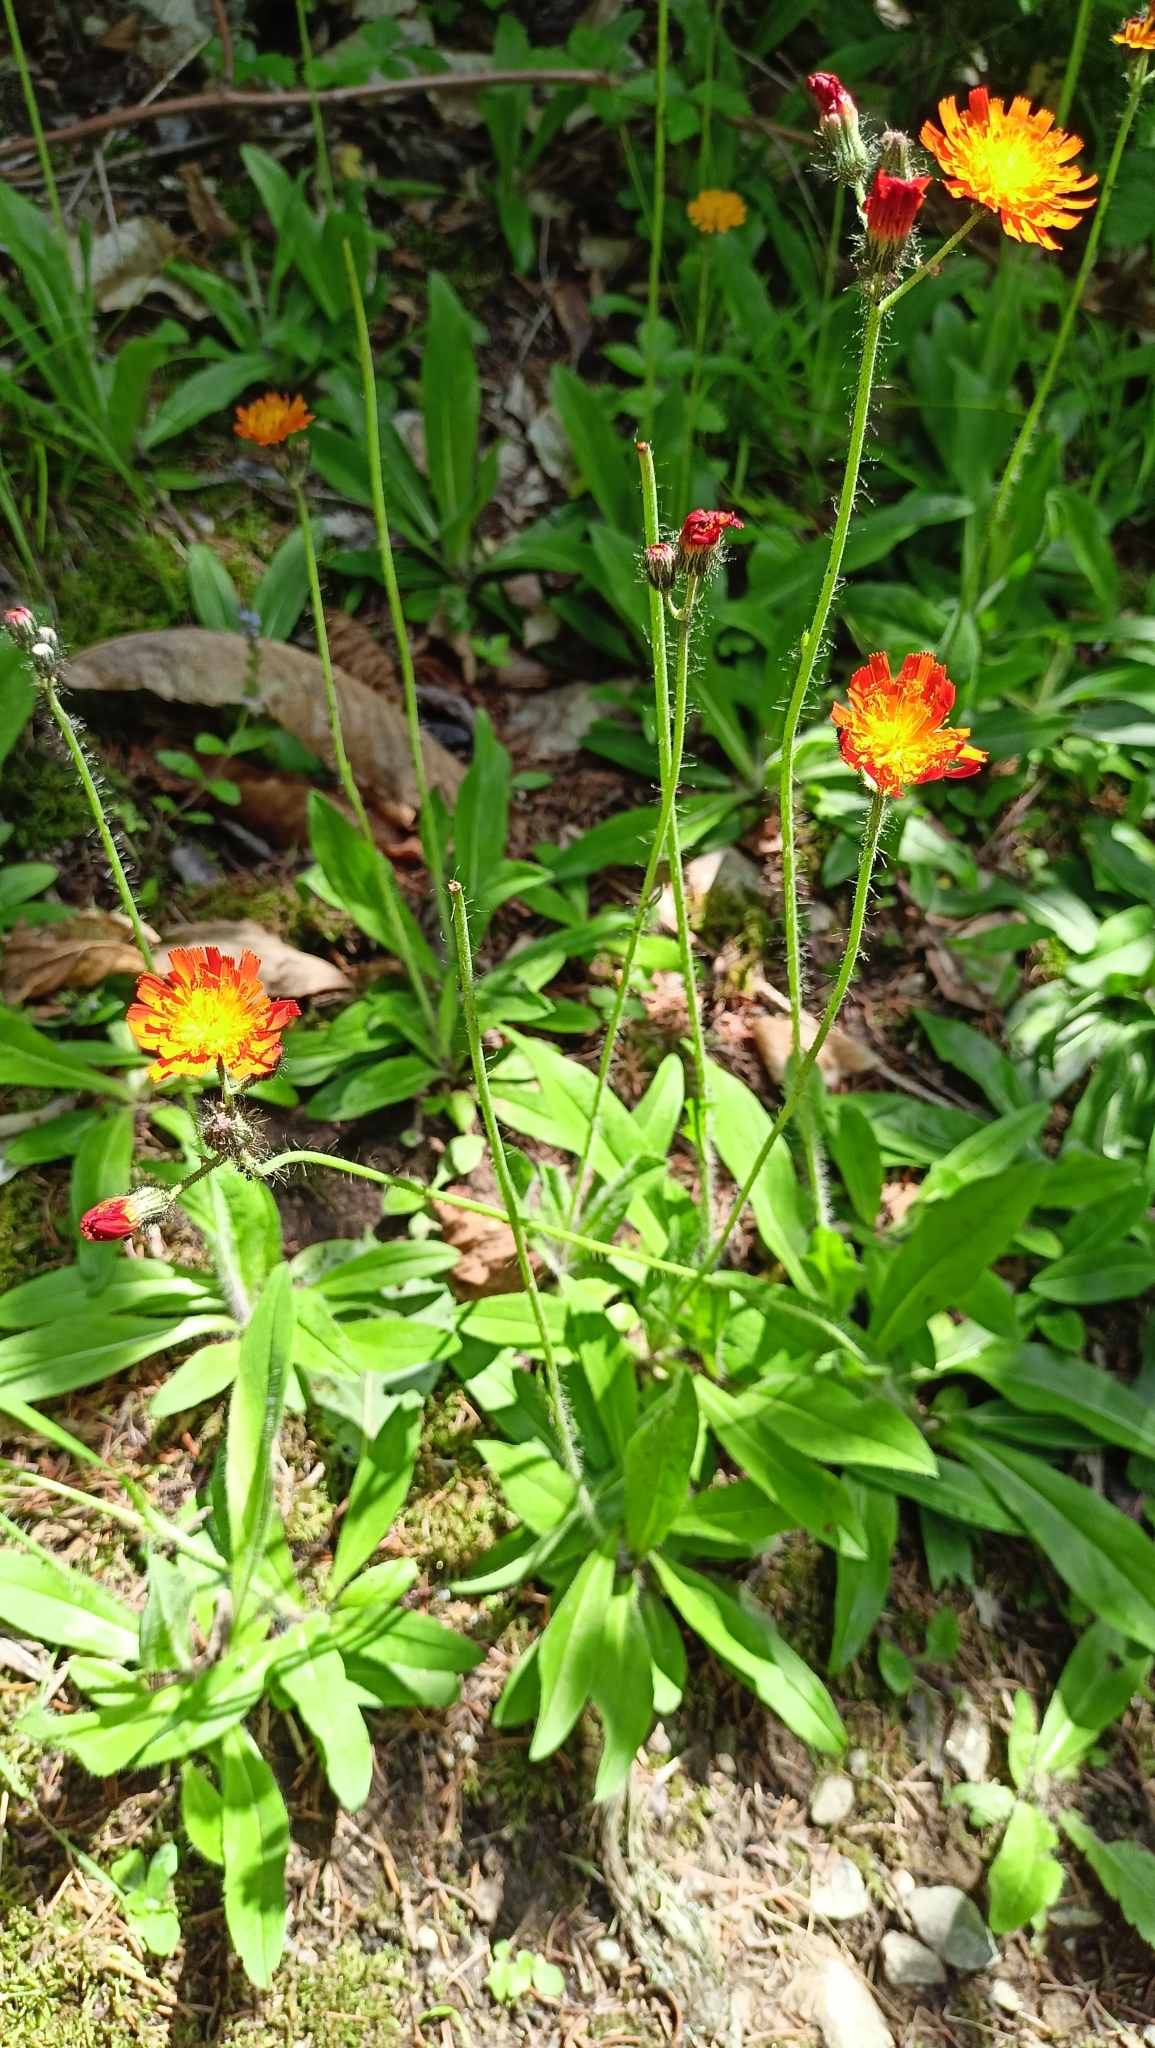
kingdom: Plantae
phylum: Tracheophyta
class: Magnoliopsida
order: Asterales
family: Asteraceae
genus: Pilosella
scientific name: Pilosella aurantiaca
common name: Fox-and-cubs
